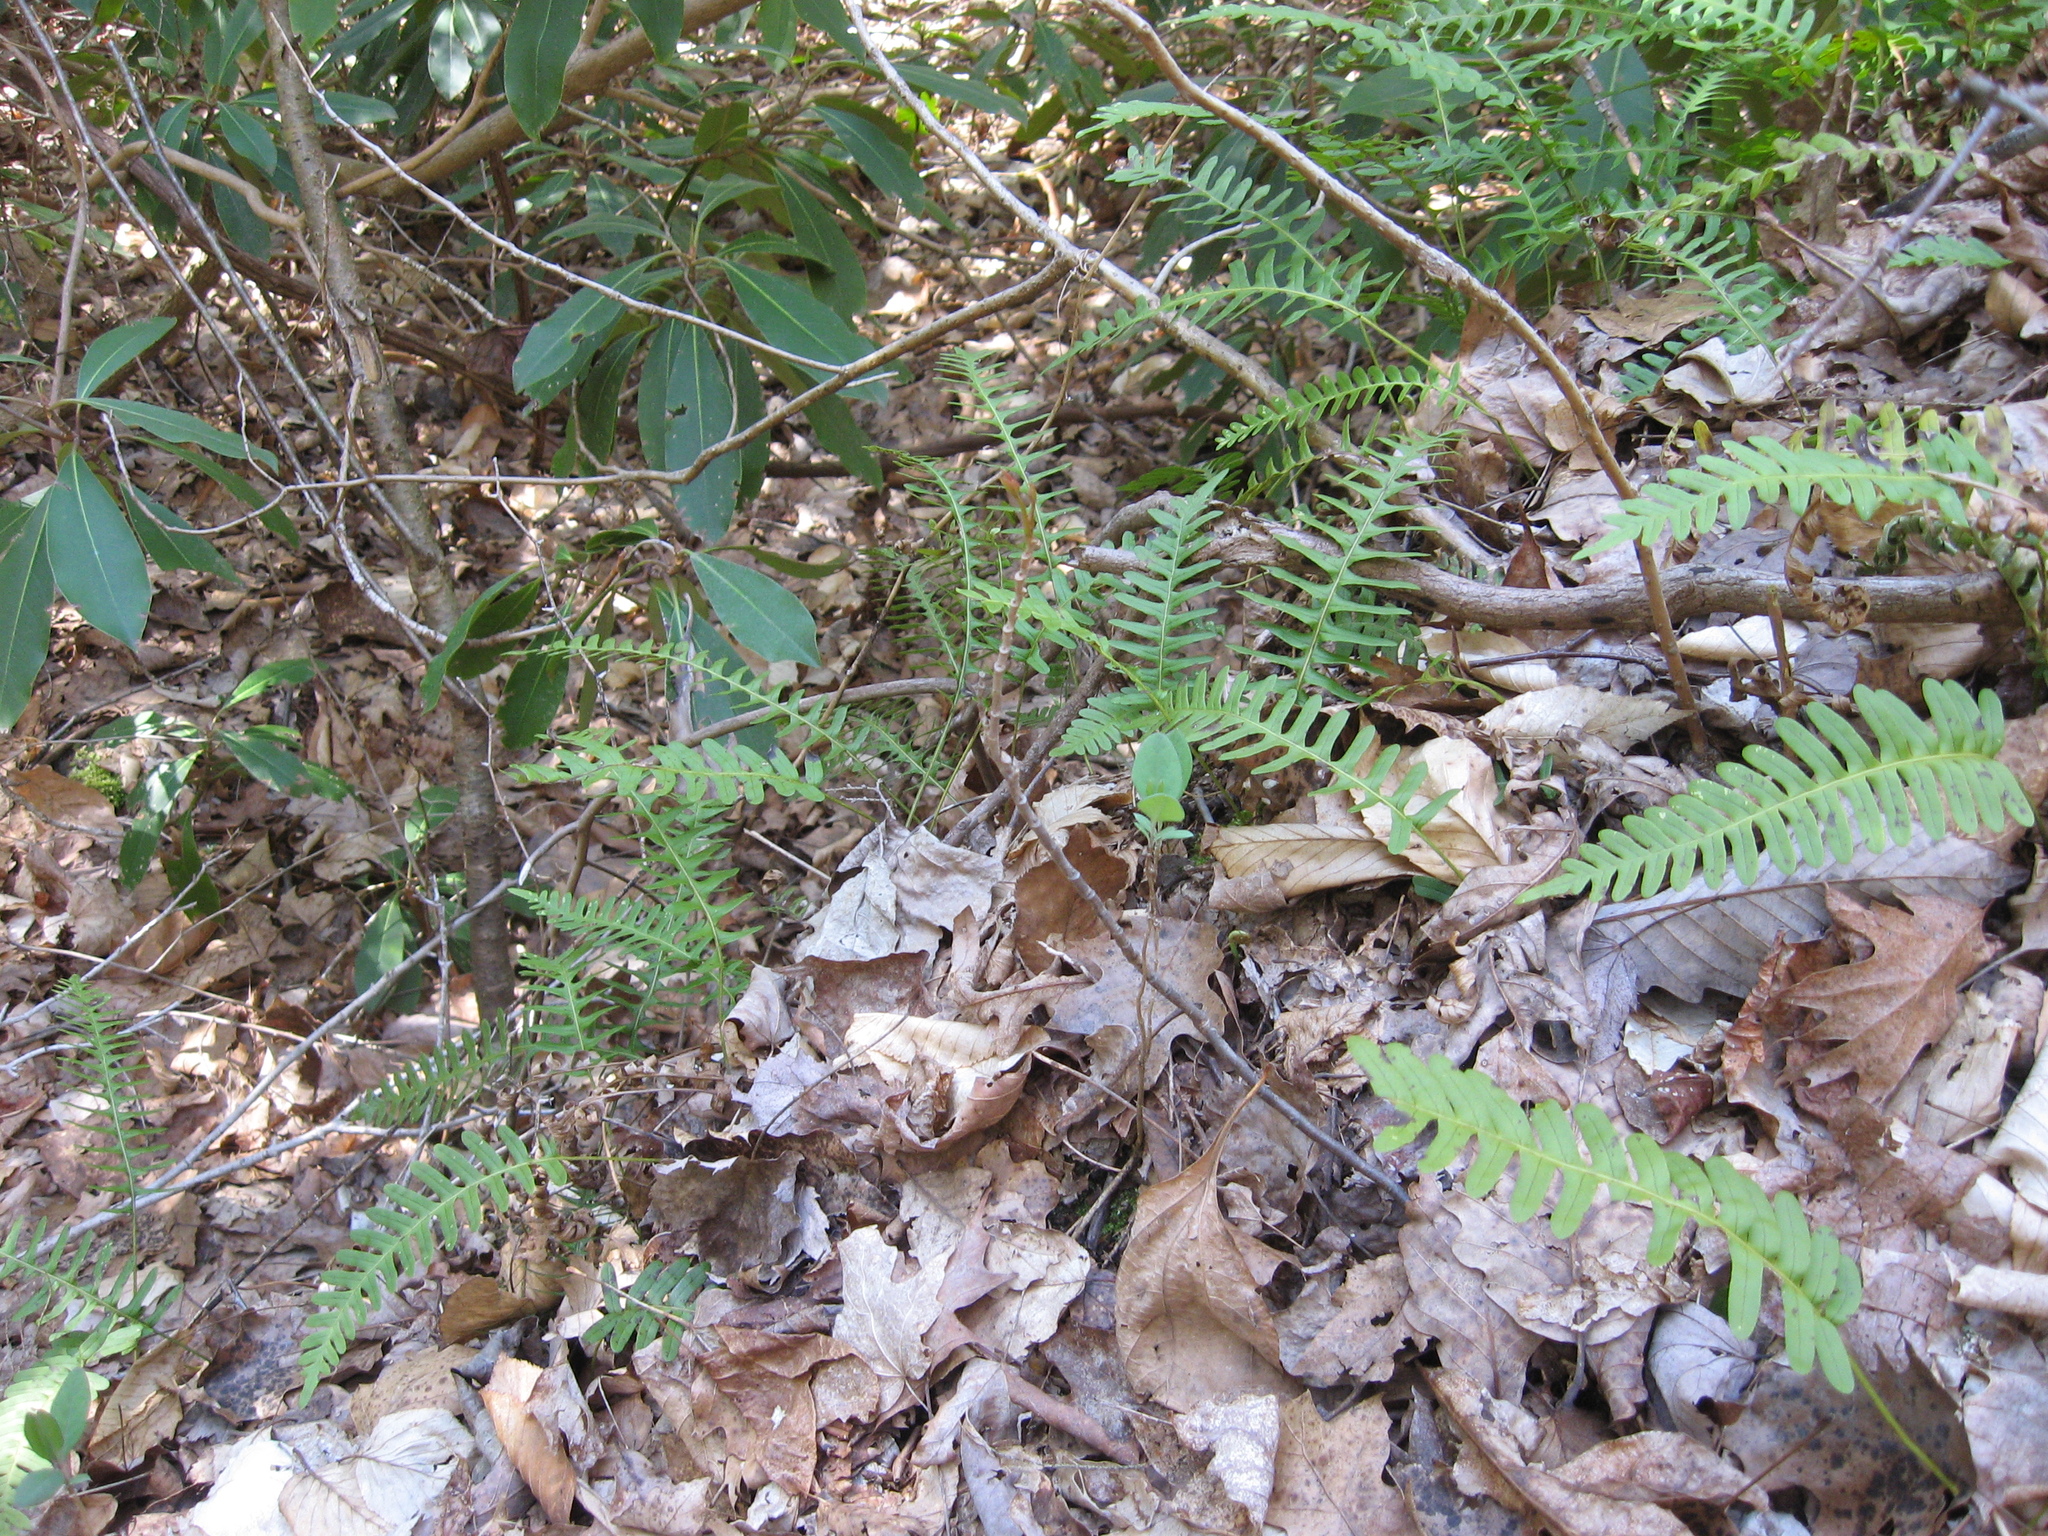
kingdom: Plantae
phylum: Tracheophyta
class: Polypodiopsida
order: Polypodiales
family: Polypodiaceae
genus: Polypodium
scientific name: Polypodium virginianum
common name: American wall fern
